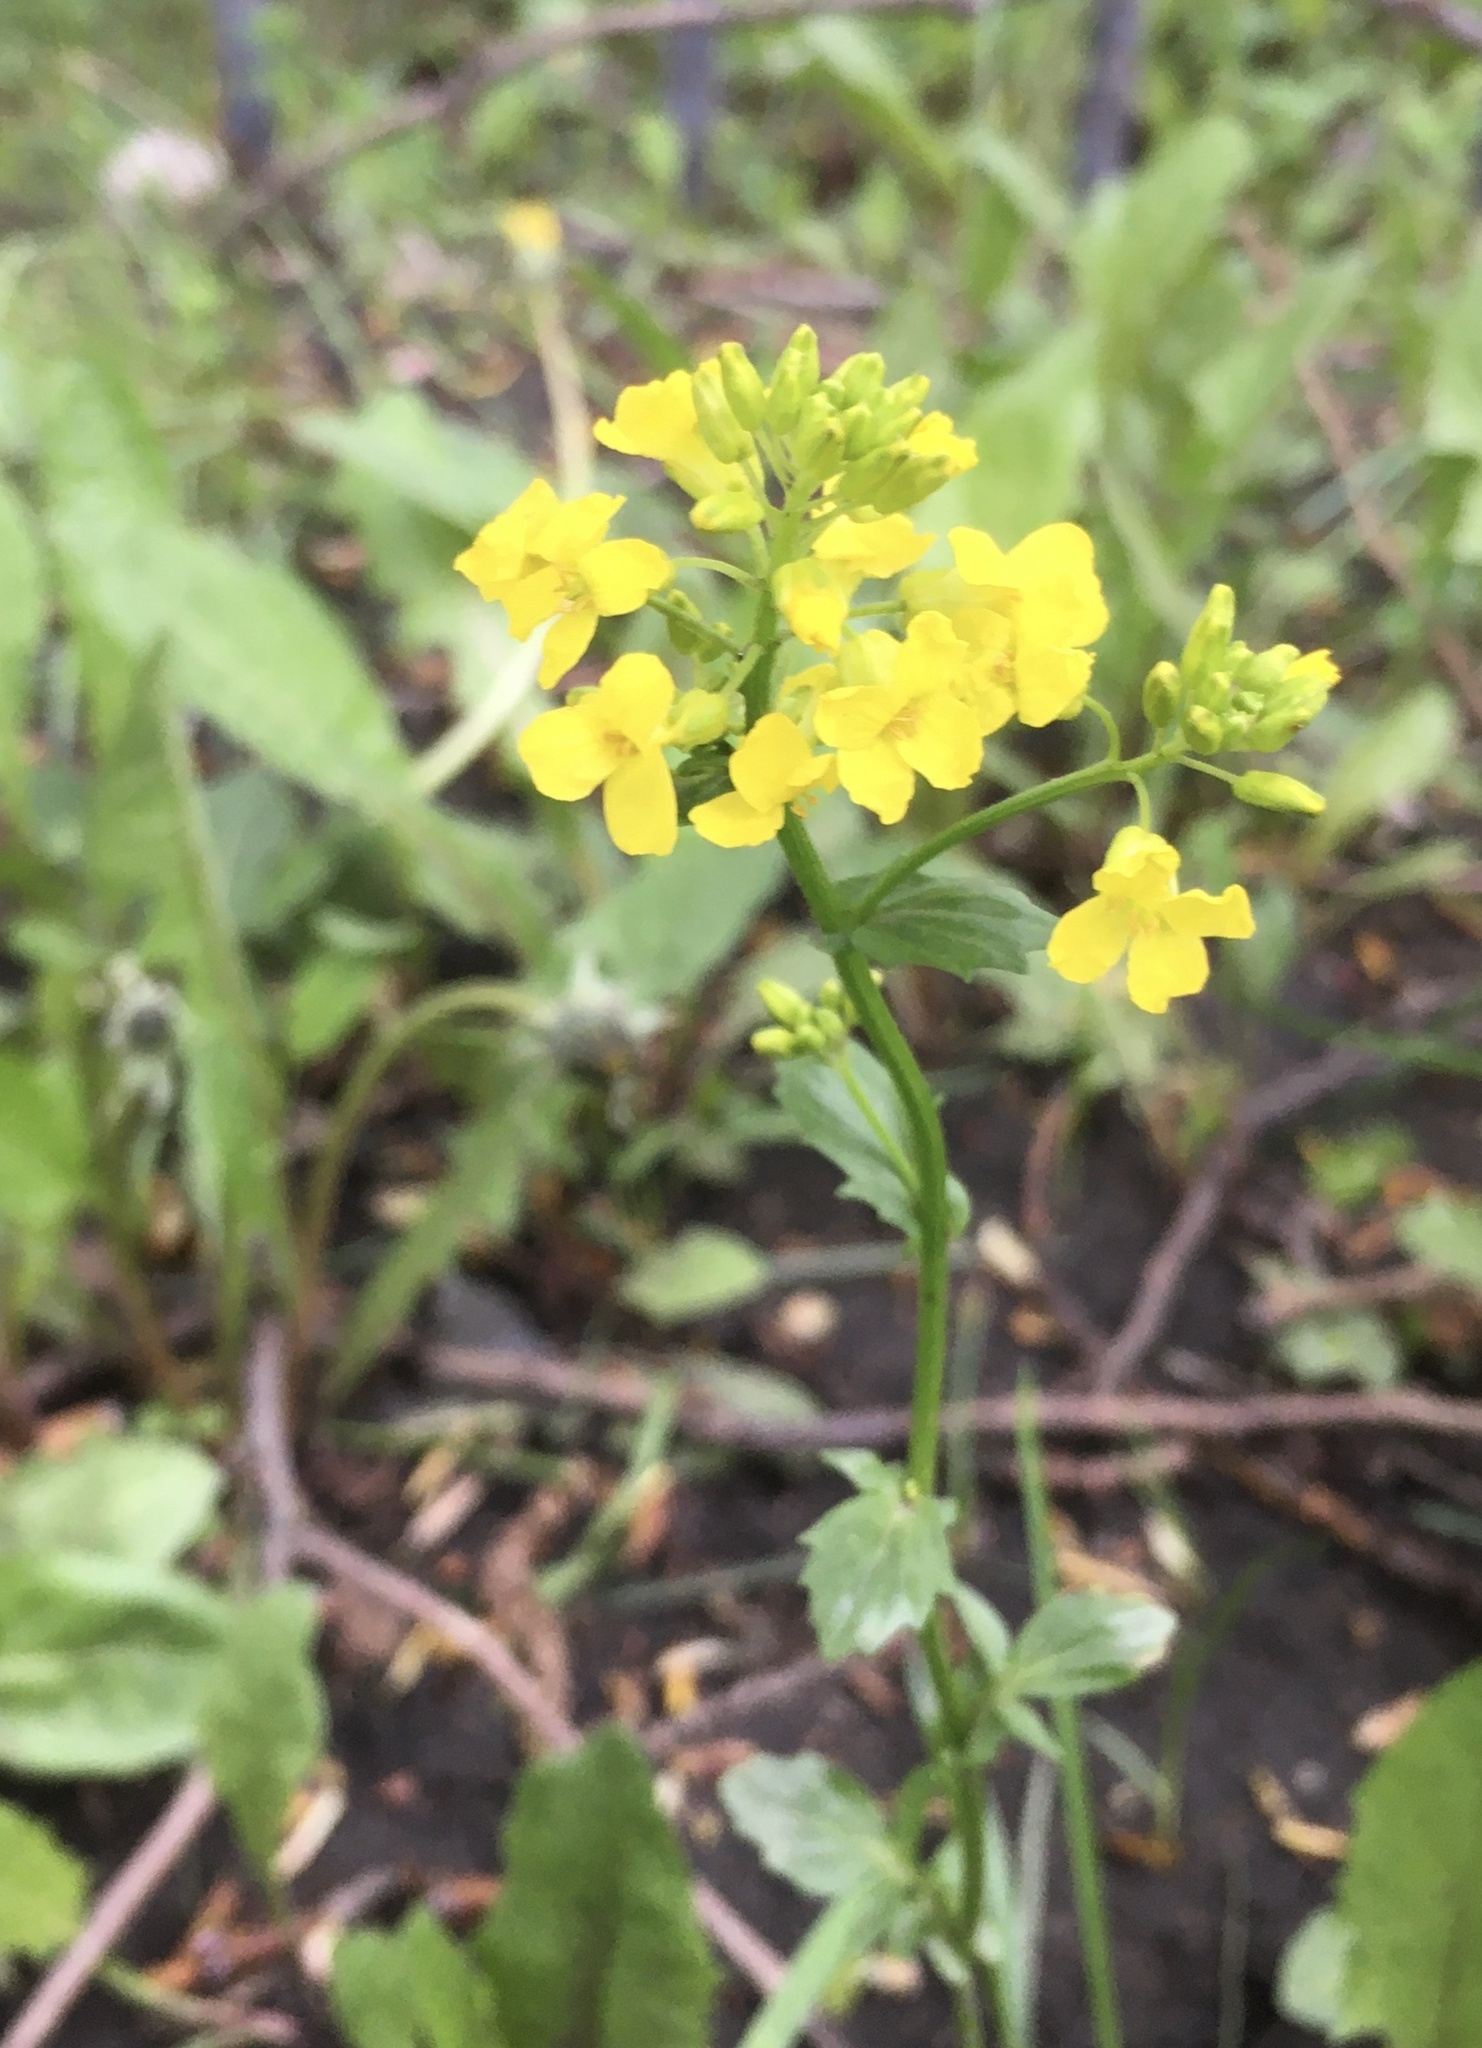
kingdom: Plantae
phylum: Tracheophyta
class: Magnoliopsida
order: Brassicales
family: Brassicaceae
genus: Barbarea
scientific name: Barbarea vulgaris
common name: Cressy-greens
